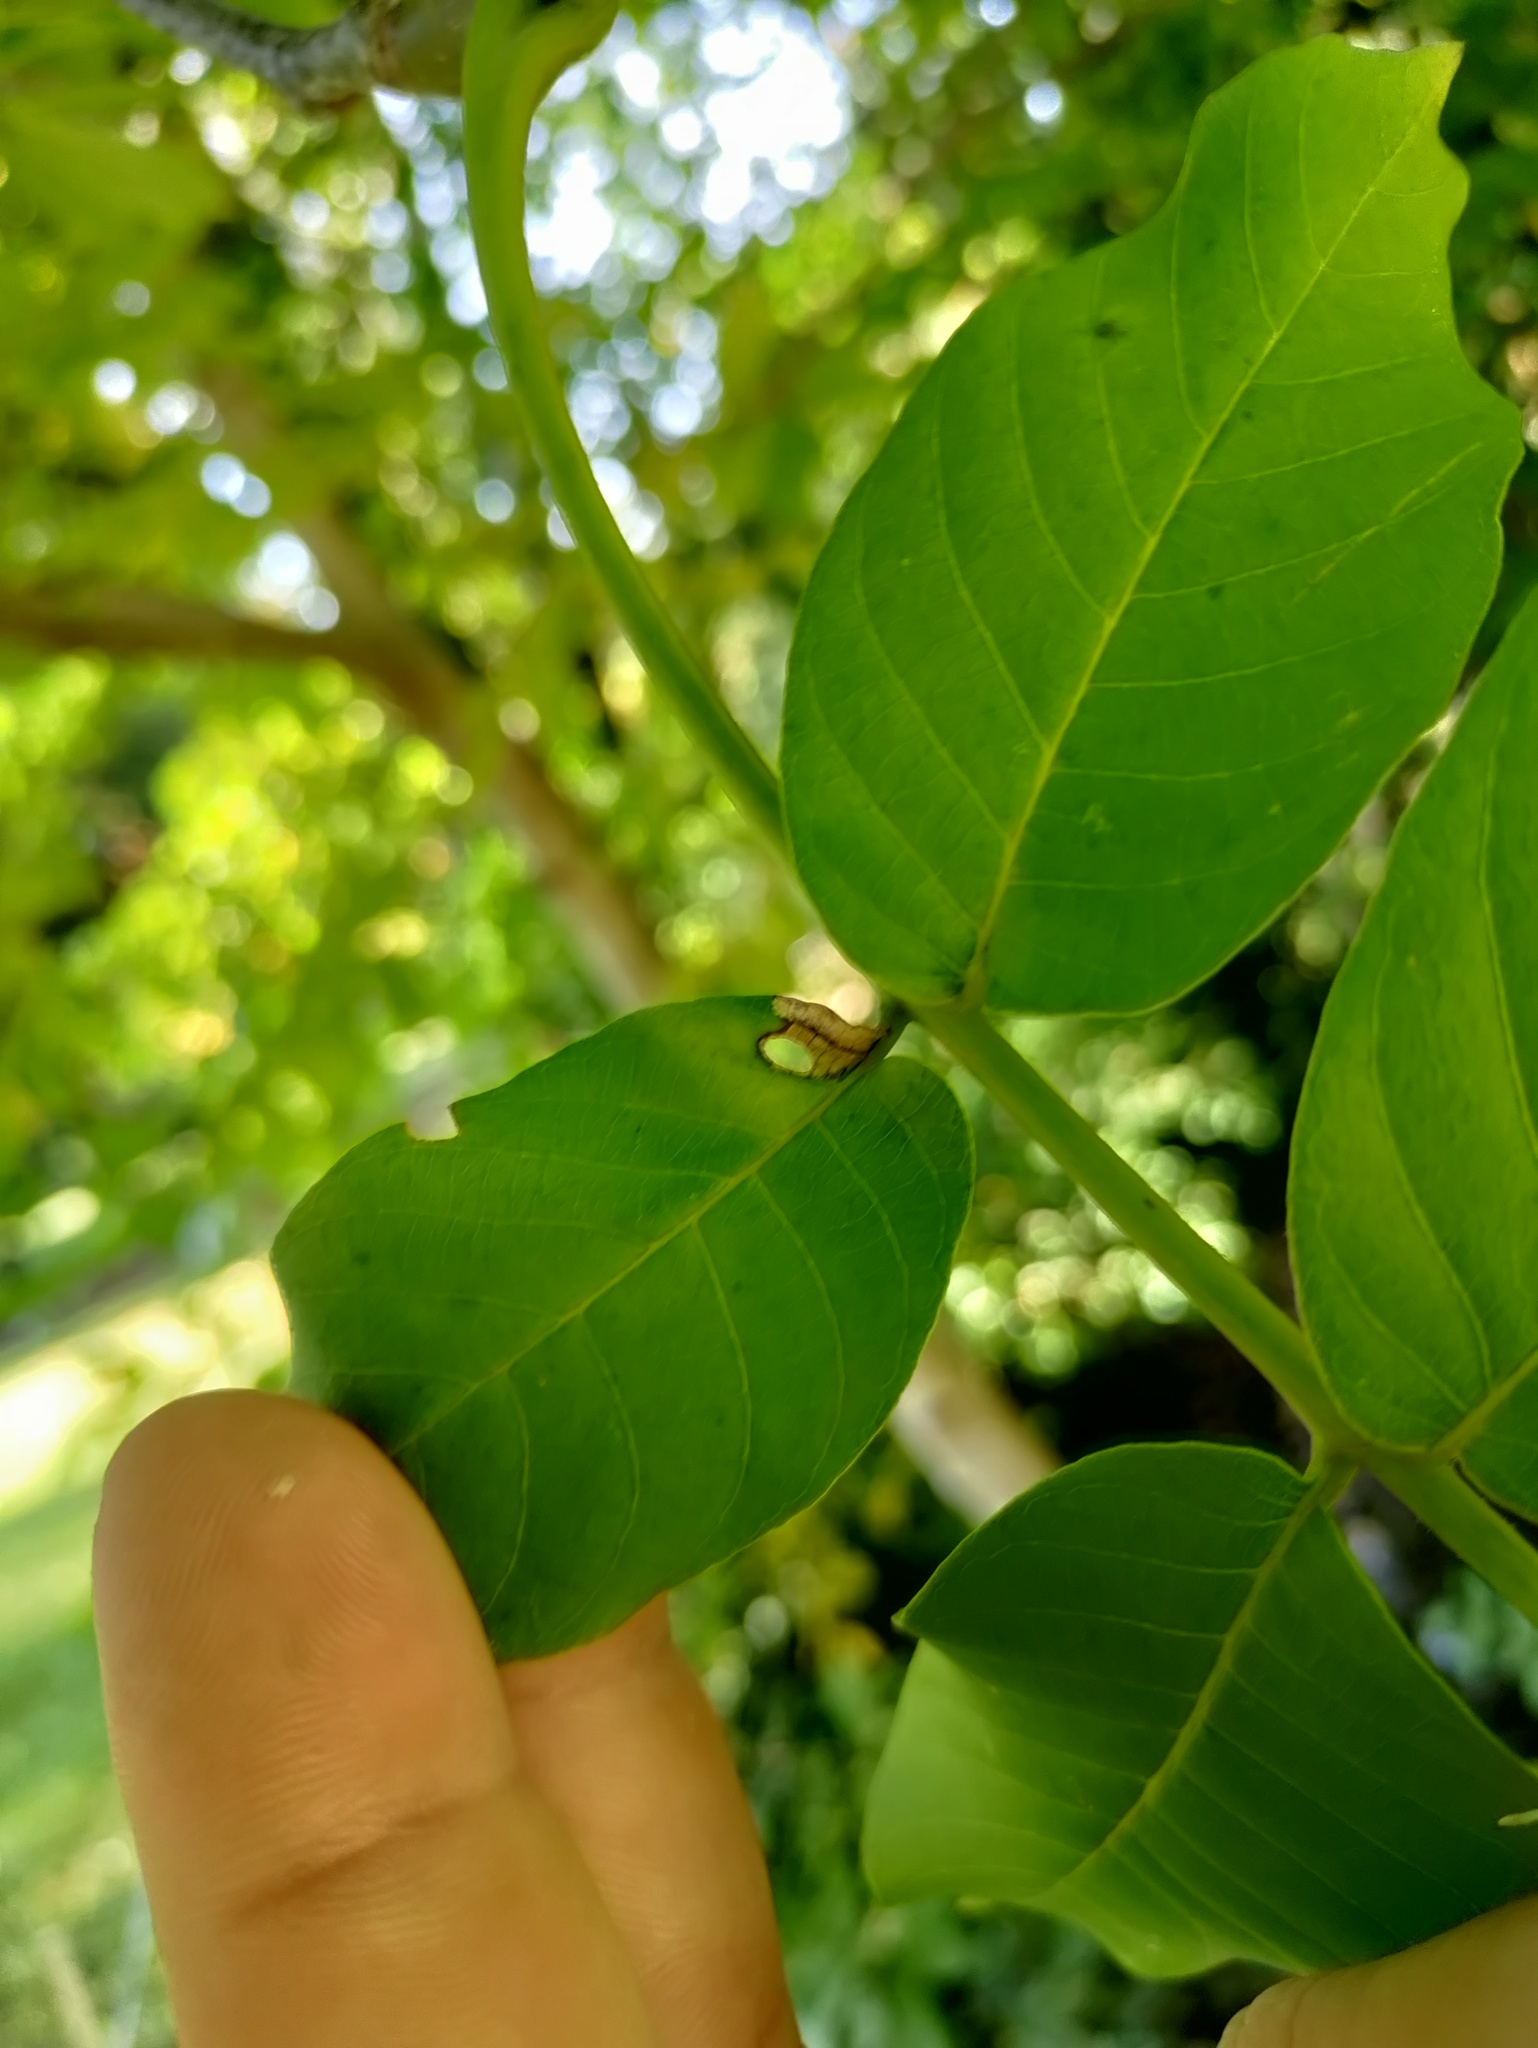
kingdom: Animalia
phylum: Arthropoda
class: Insecta
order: Lepidoptera
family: Heliozelidae
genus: Coptodisca
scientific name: Coptodisca lucifluella
